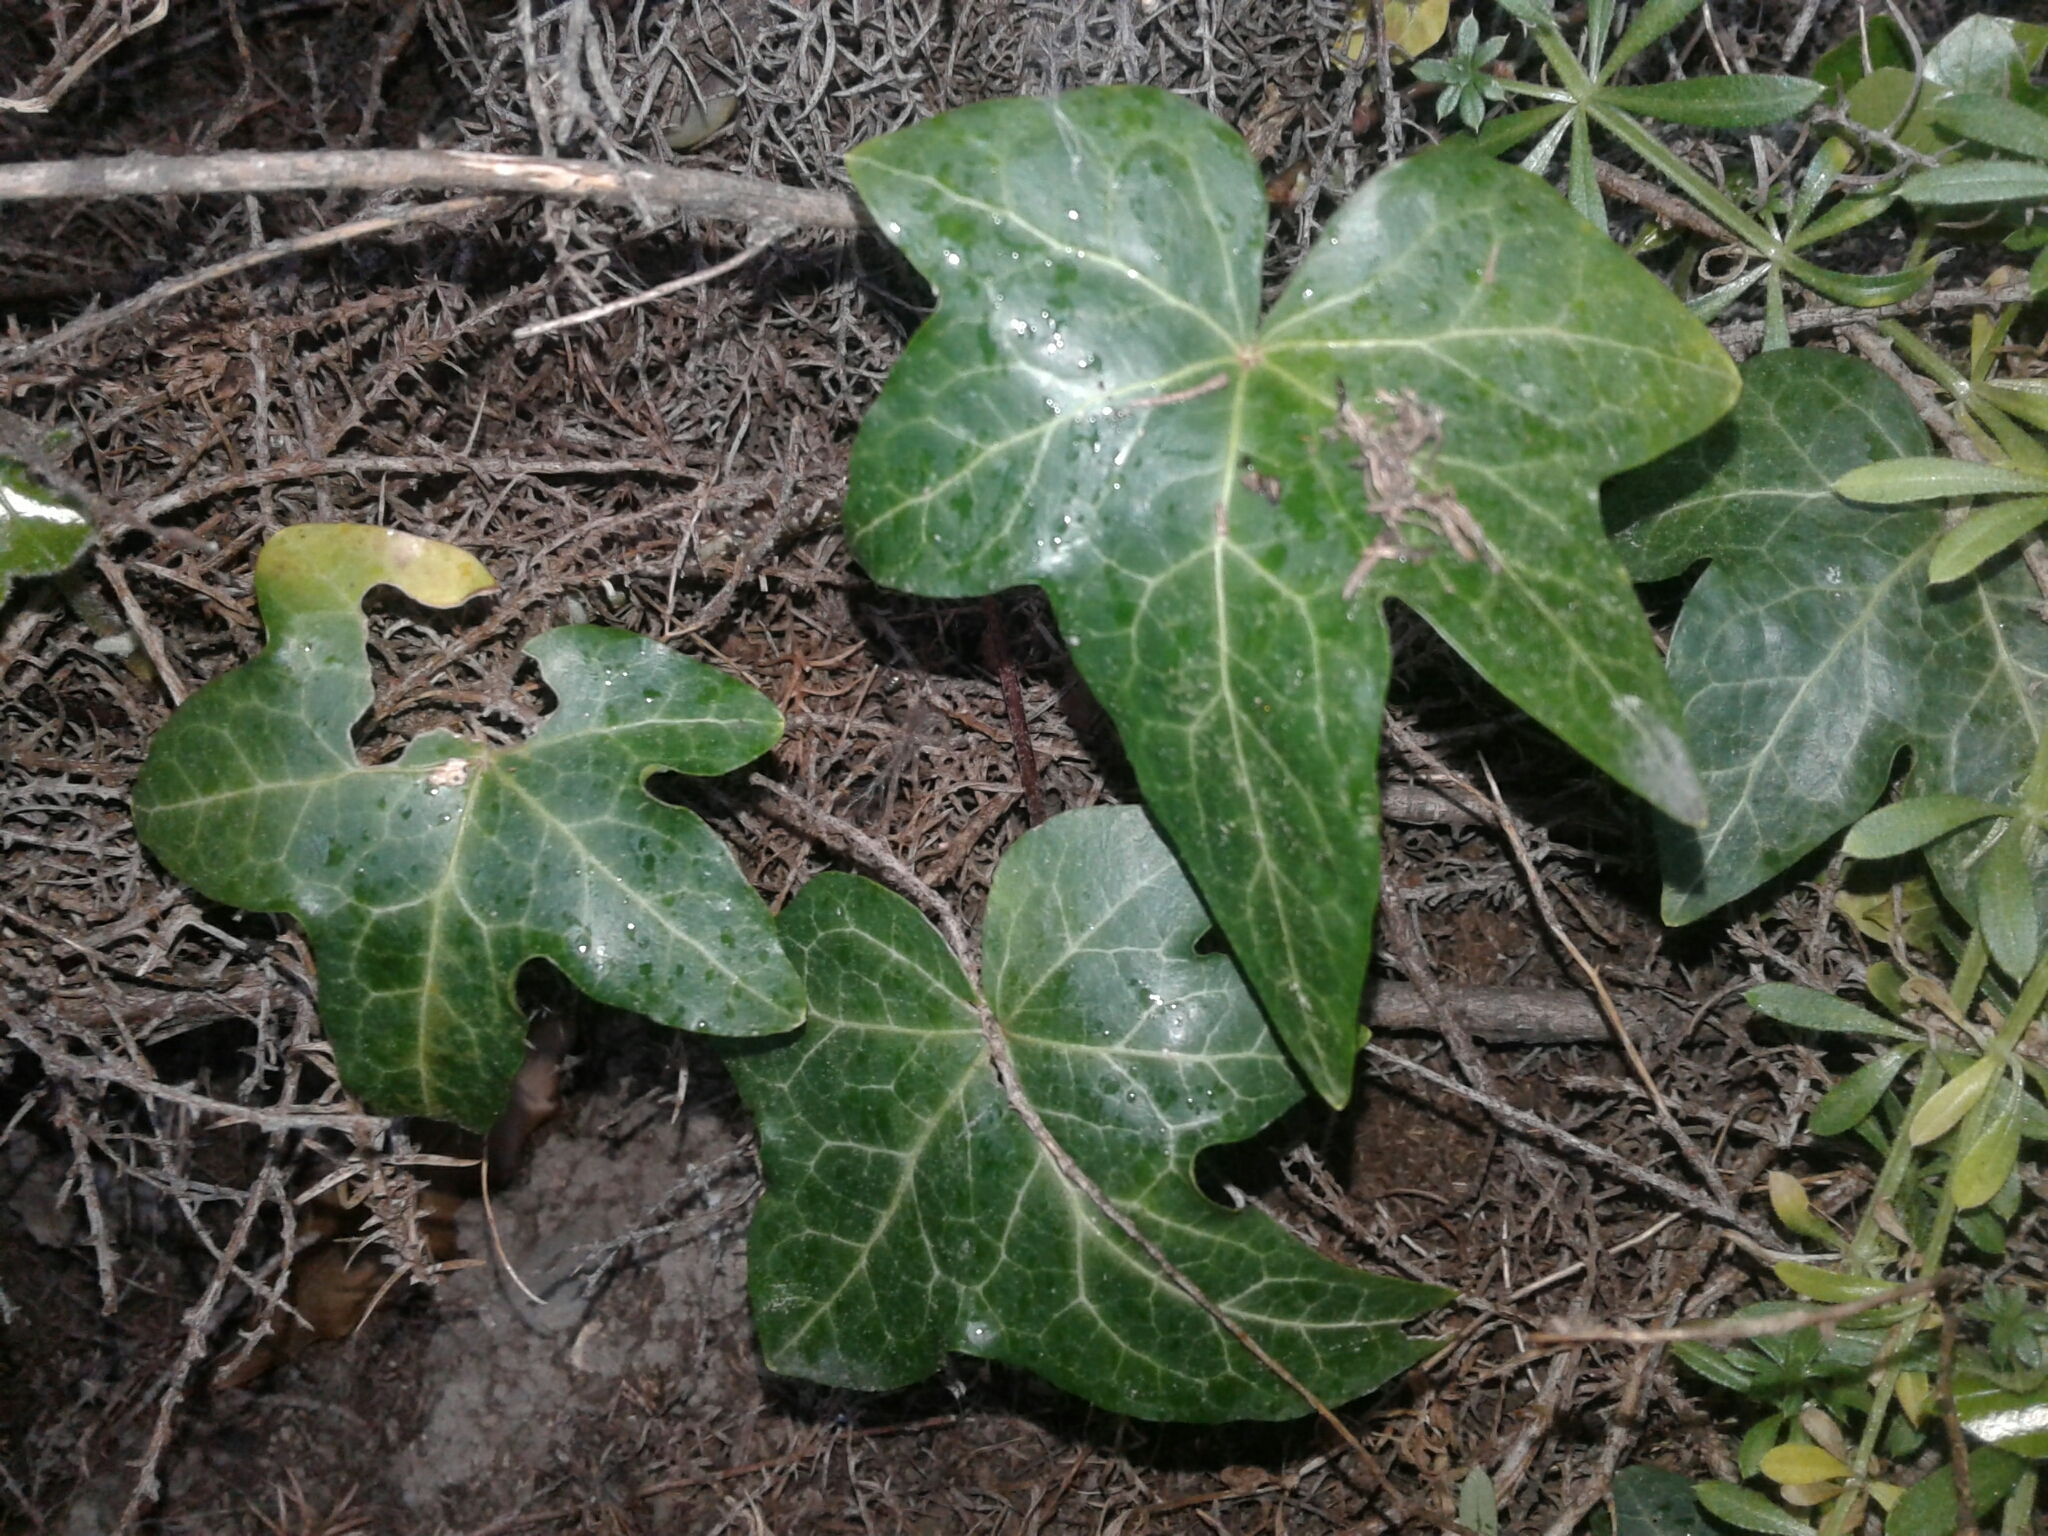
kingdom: Plantae
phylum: Tracheophyta
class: Magnoliopsida
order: Apiales
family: Araliaceae
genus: Hedera
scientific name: Hedera helix
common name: Ivy
